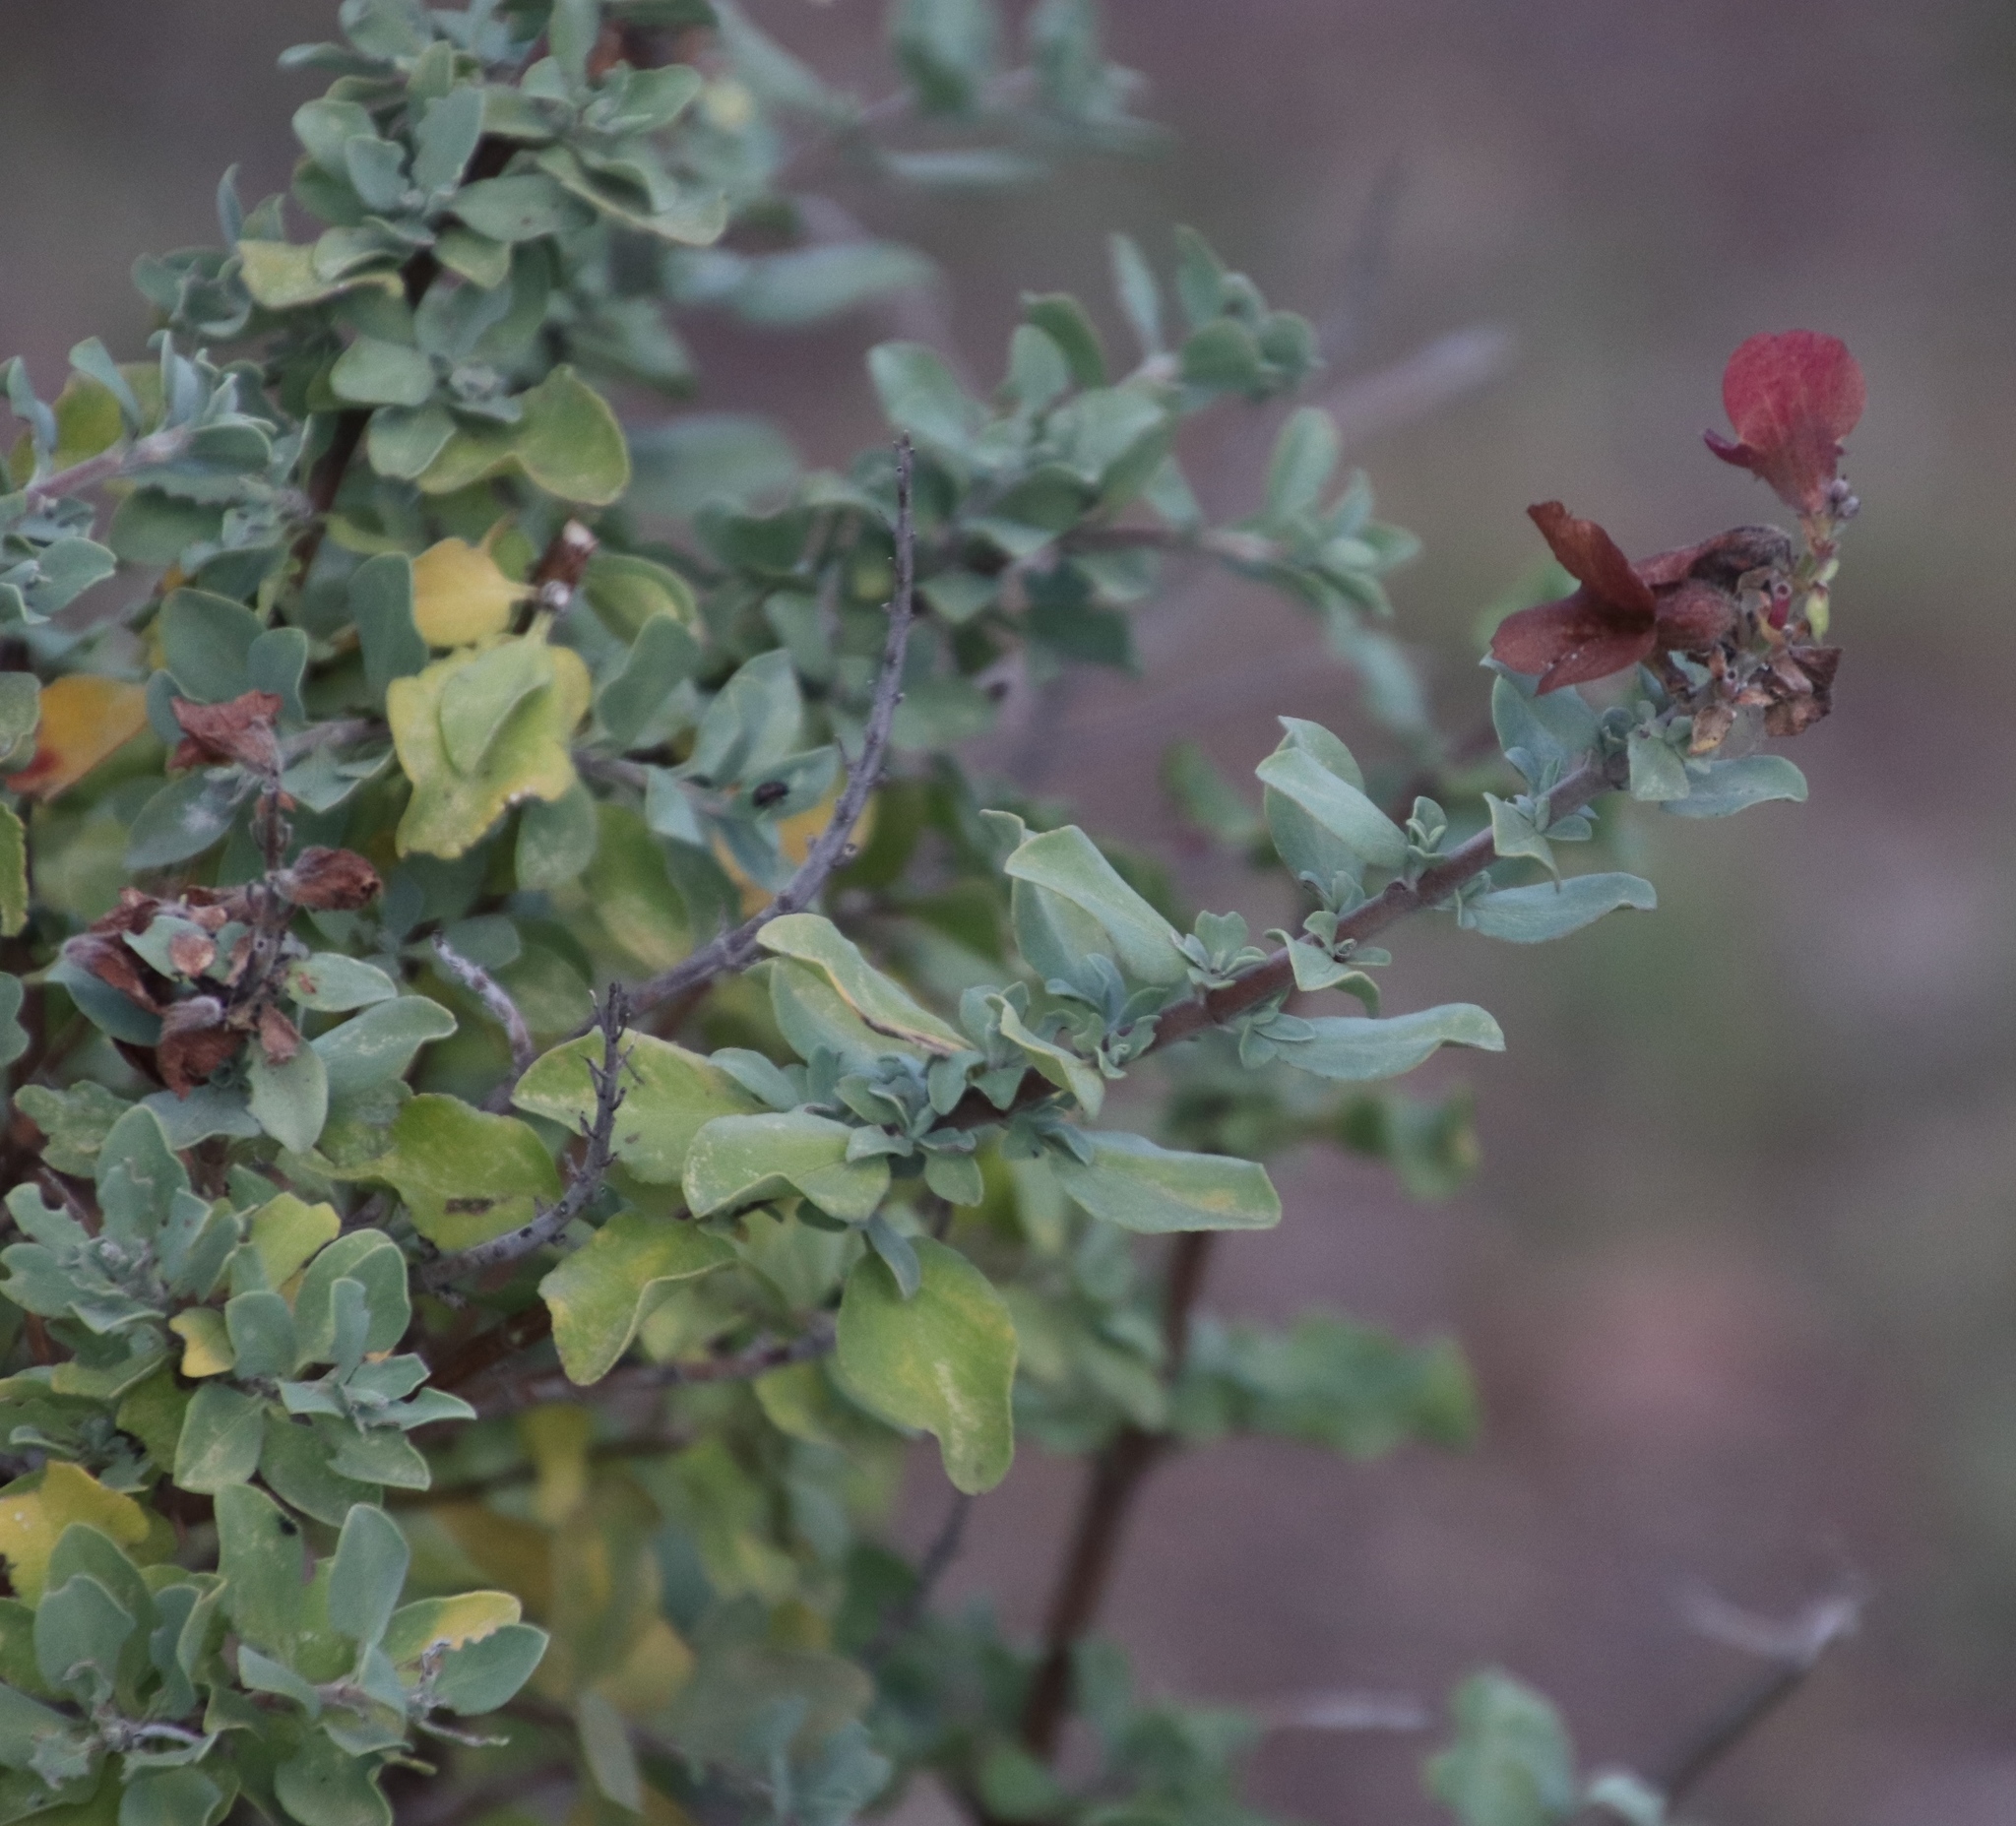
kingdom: Plantae
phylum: Tracheophyta
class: Magnoliopsida
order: Lamiales
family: Lamiaceae
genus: Salvia
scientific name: Salvia aurea
